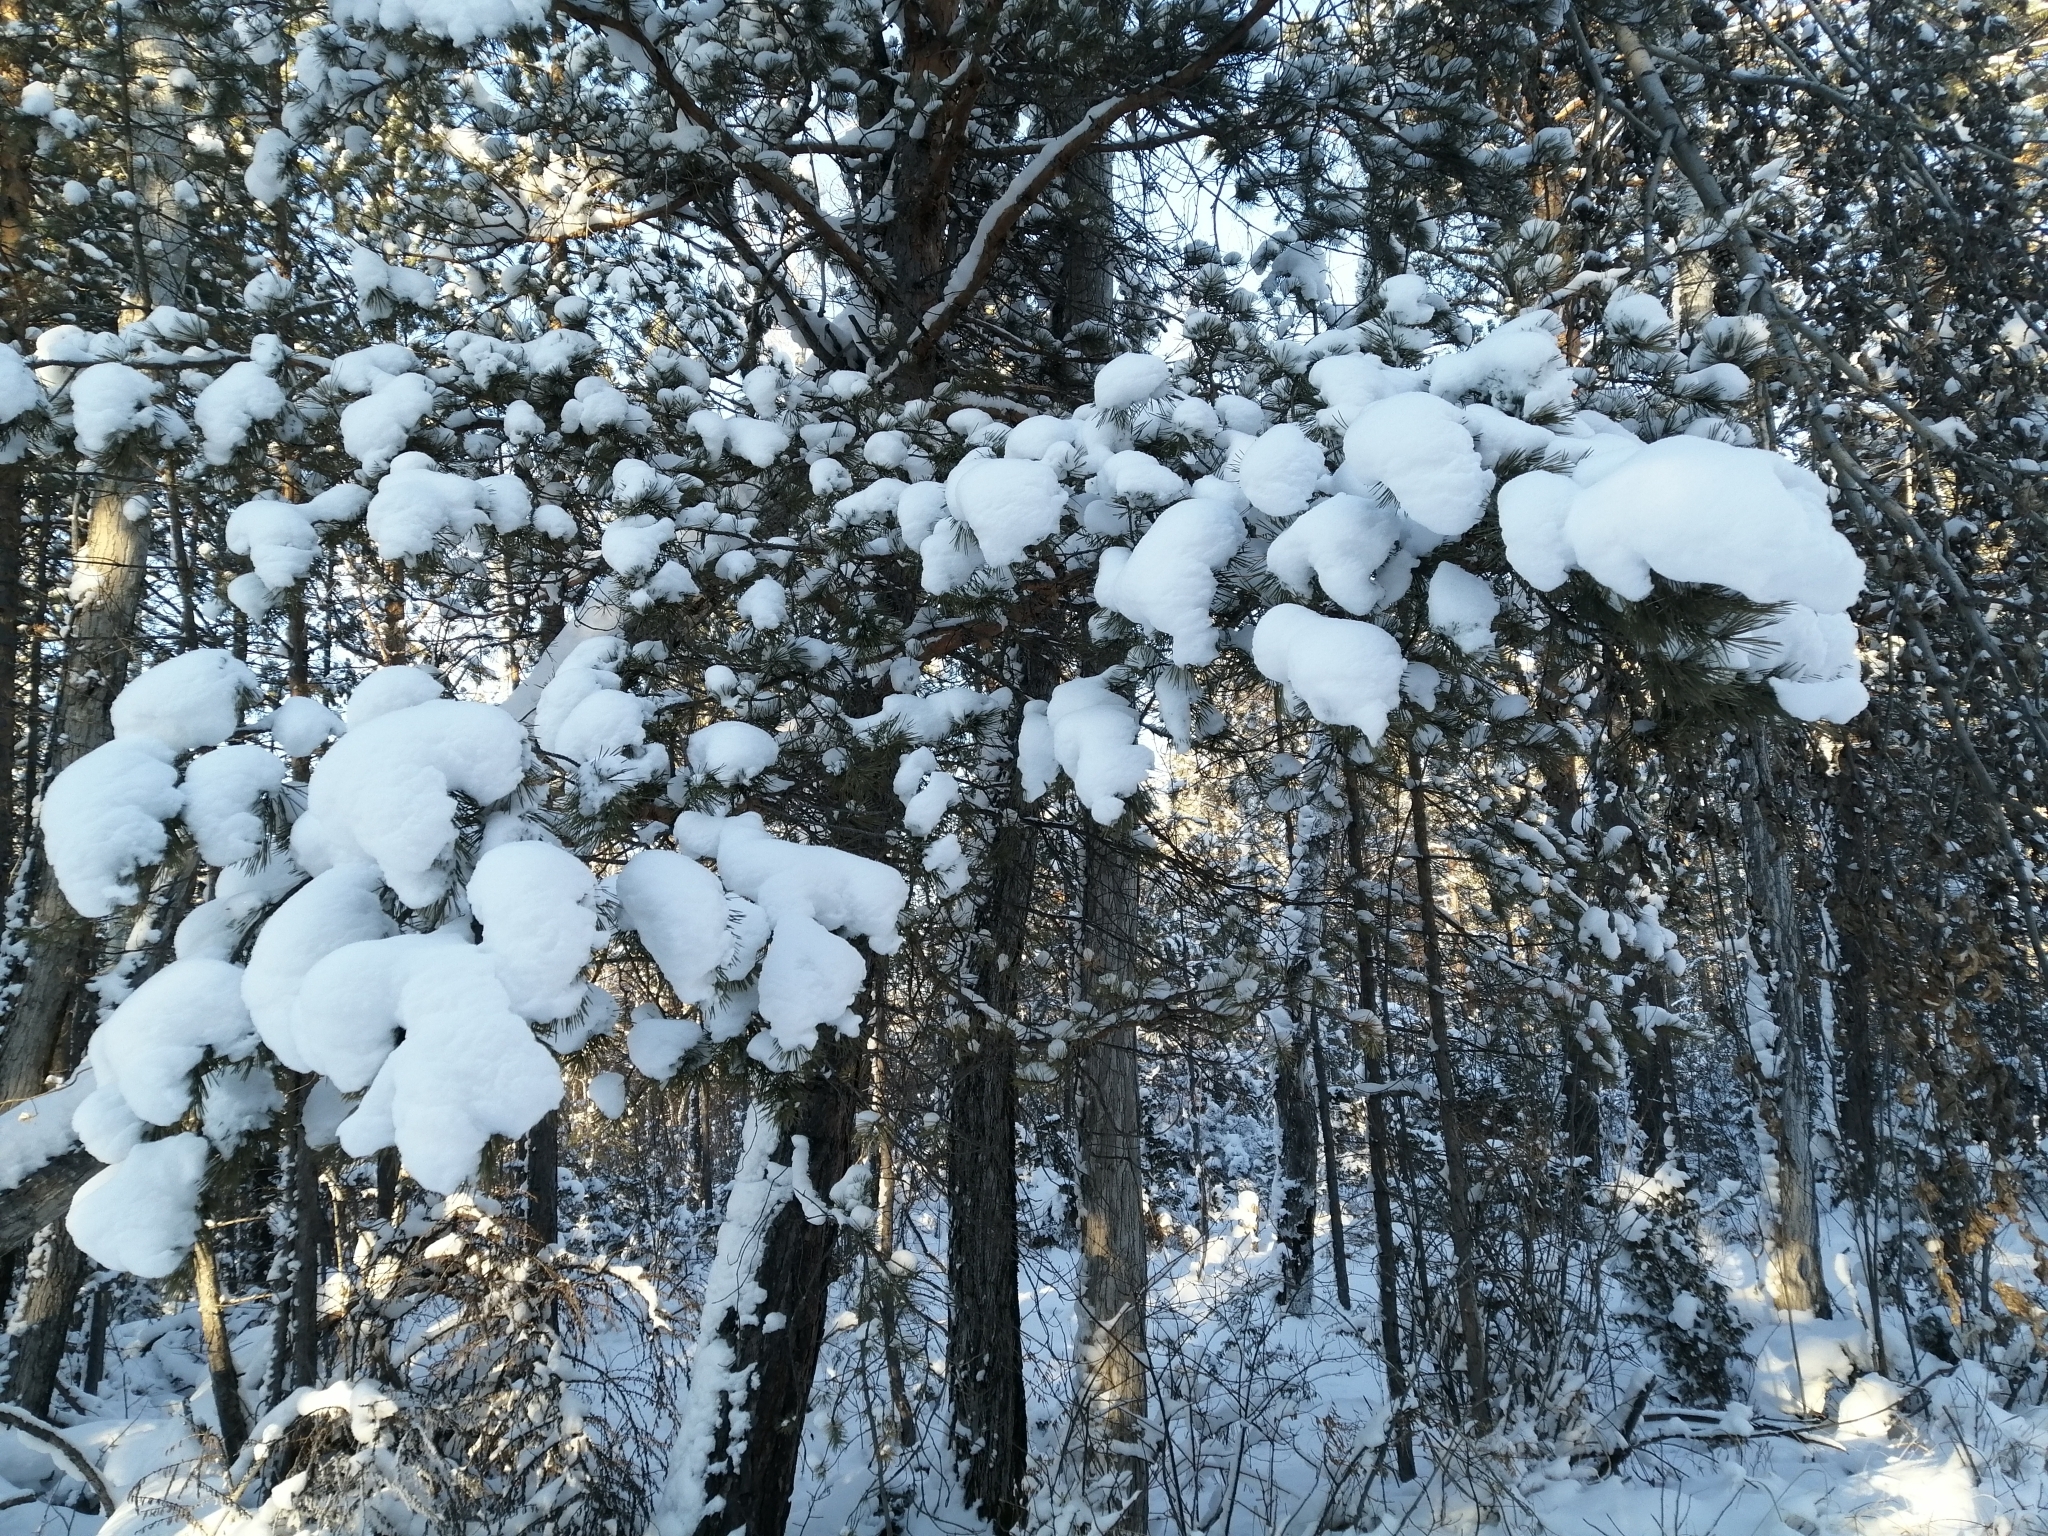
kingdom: Plantae
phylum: Tracheophyta
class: Pinopsida
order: Pinales
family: Pinaceae
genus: Pinus
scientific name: Pinus sylvestris
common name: Scots pine
